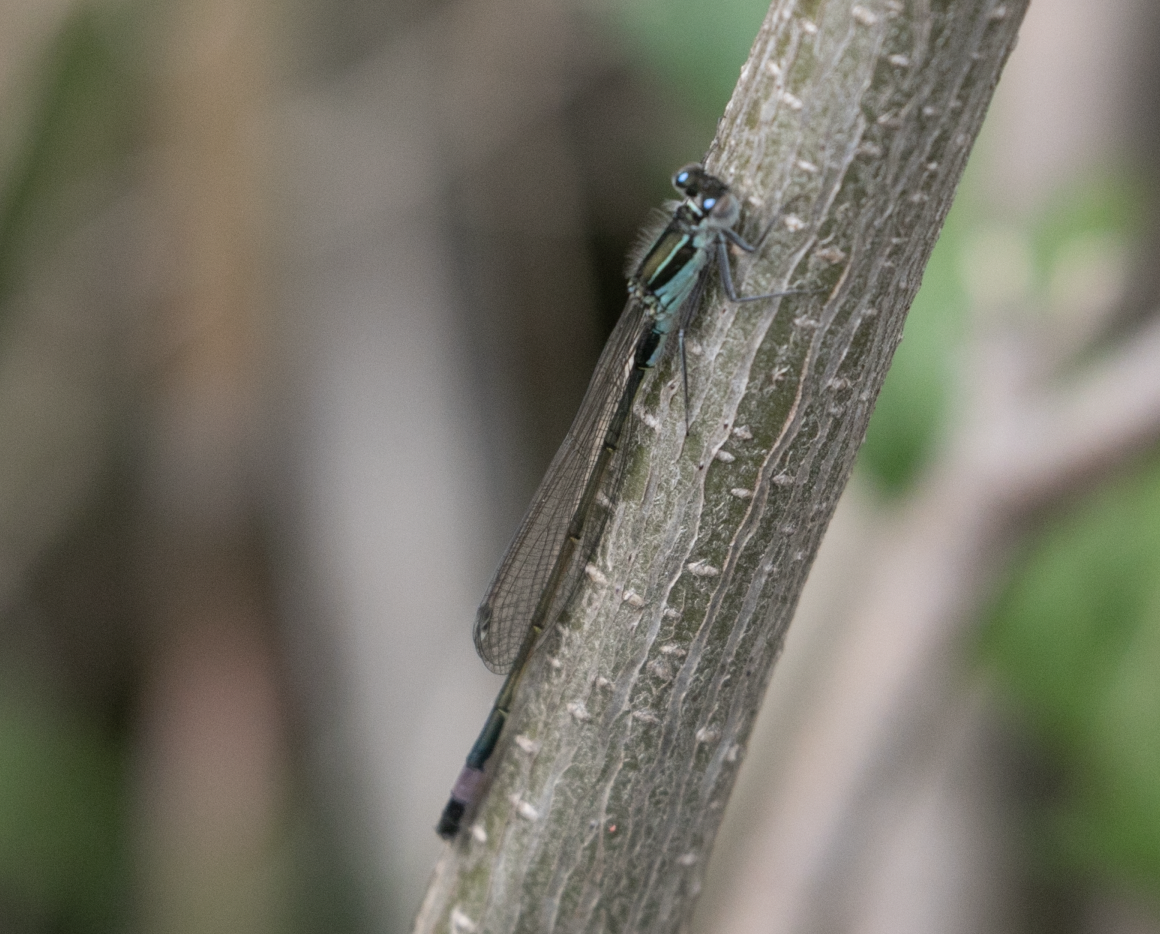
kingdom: Animalia
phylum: Arthropoda
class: Insecta
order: Odonata
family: Coenagrionidae
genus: Ischnura
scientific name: Ischnura elegans
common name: Blue-tailed damselfly
